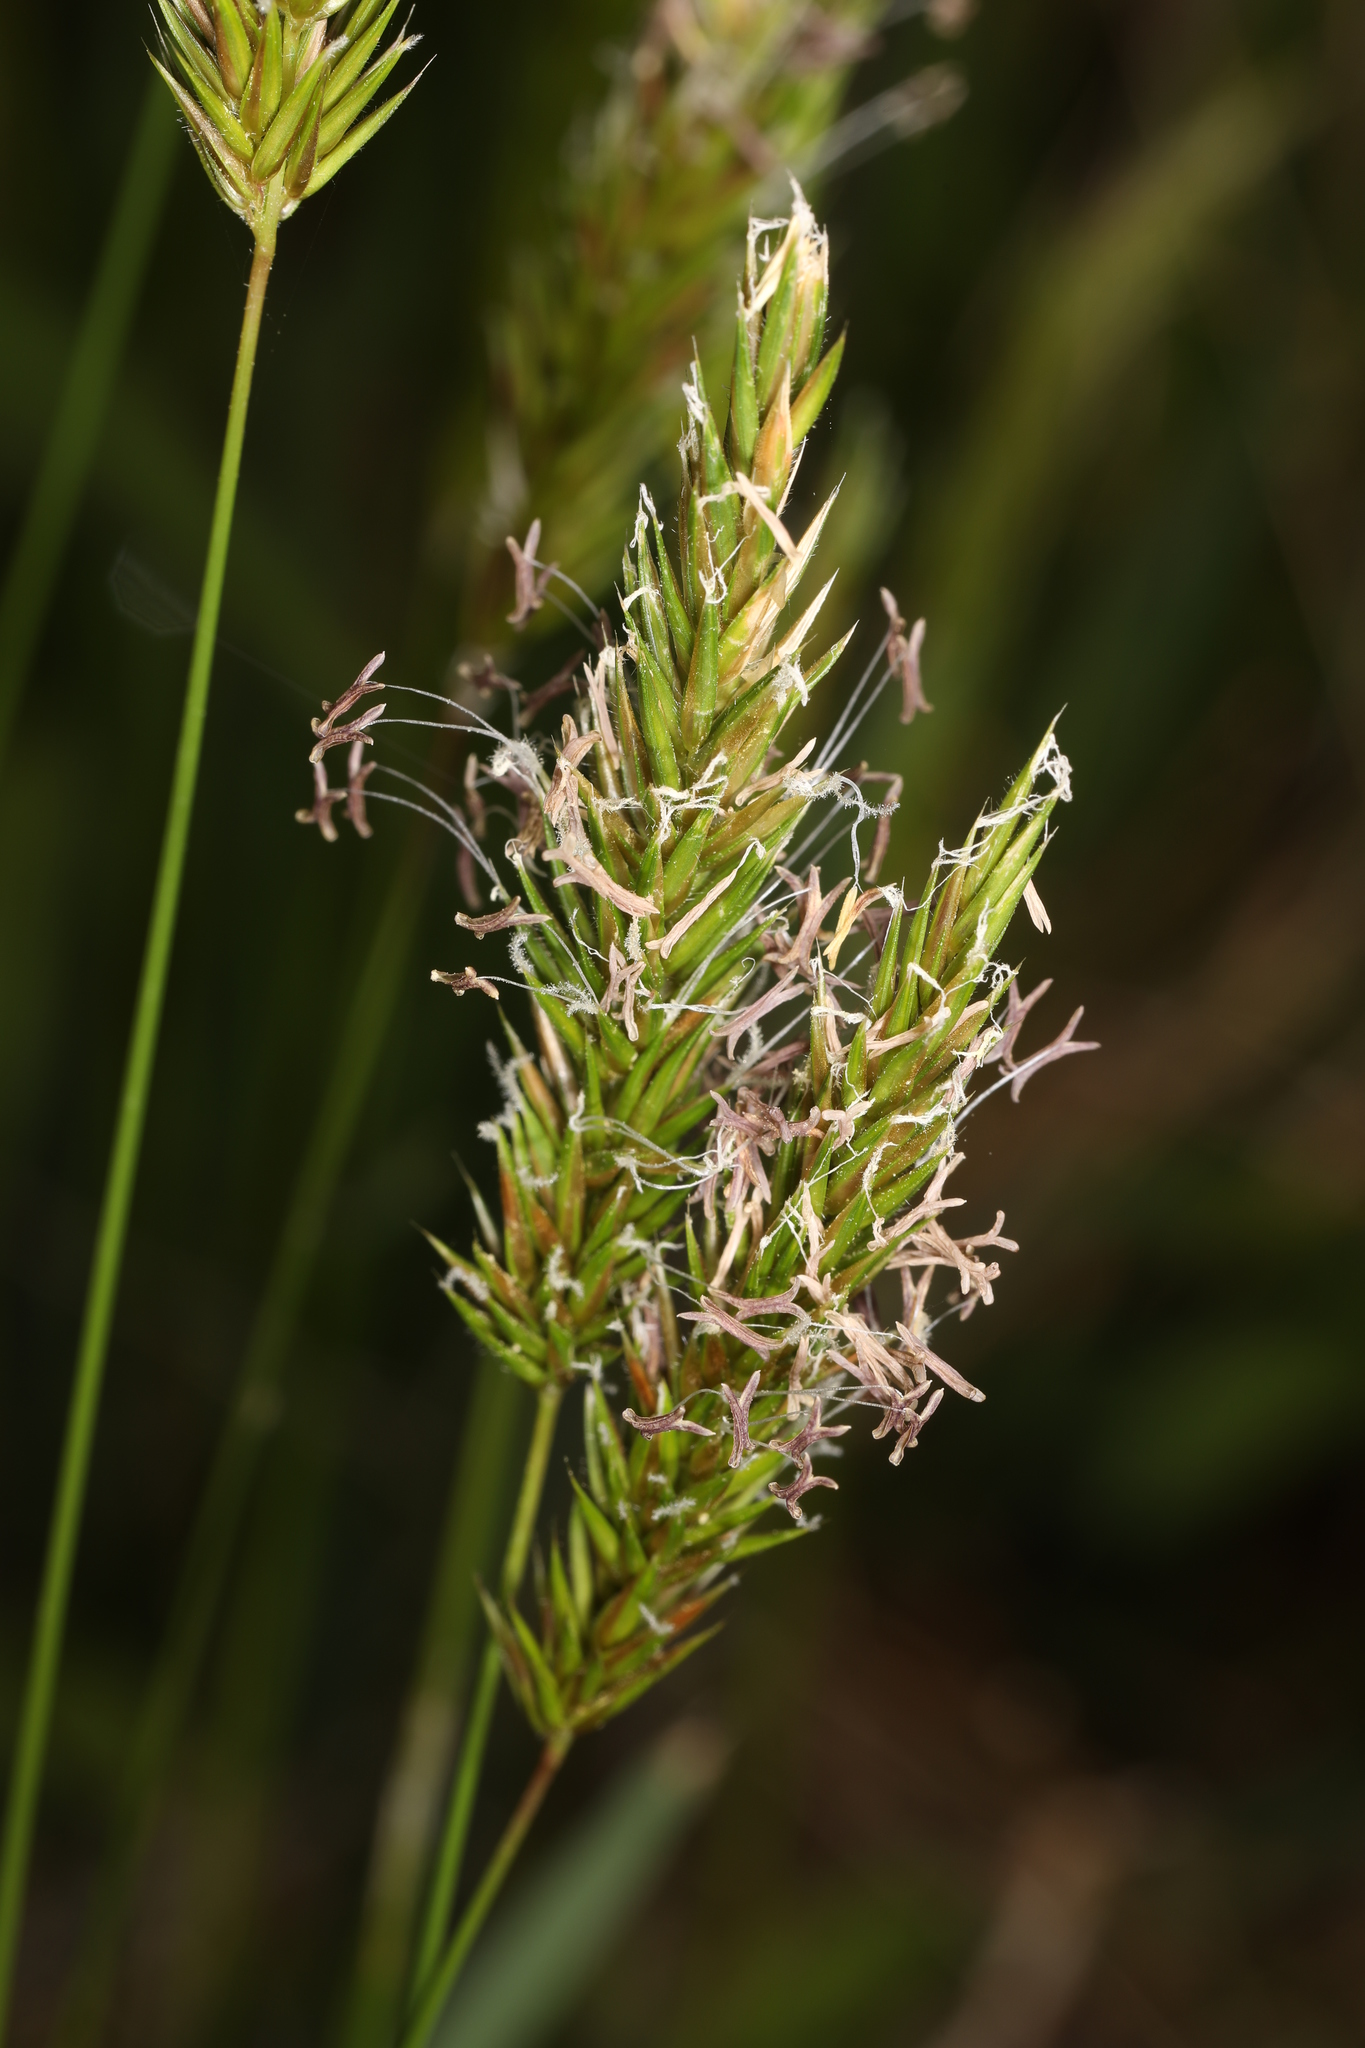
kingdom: Plantae
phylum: Tracheophyta
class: Liliopsida
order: Poales
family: Poaceae
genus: Anthoxanthum
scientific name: Anthoxanthum odoratum
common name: Sweet vernalgrass
